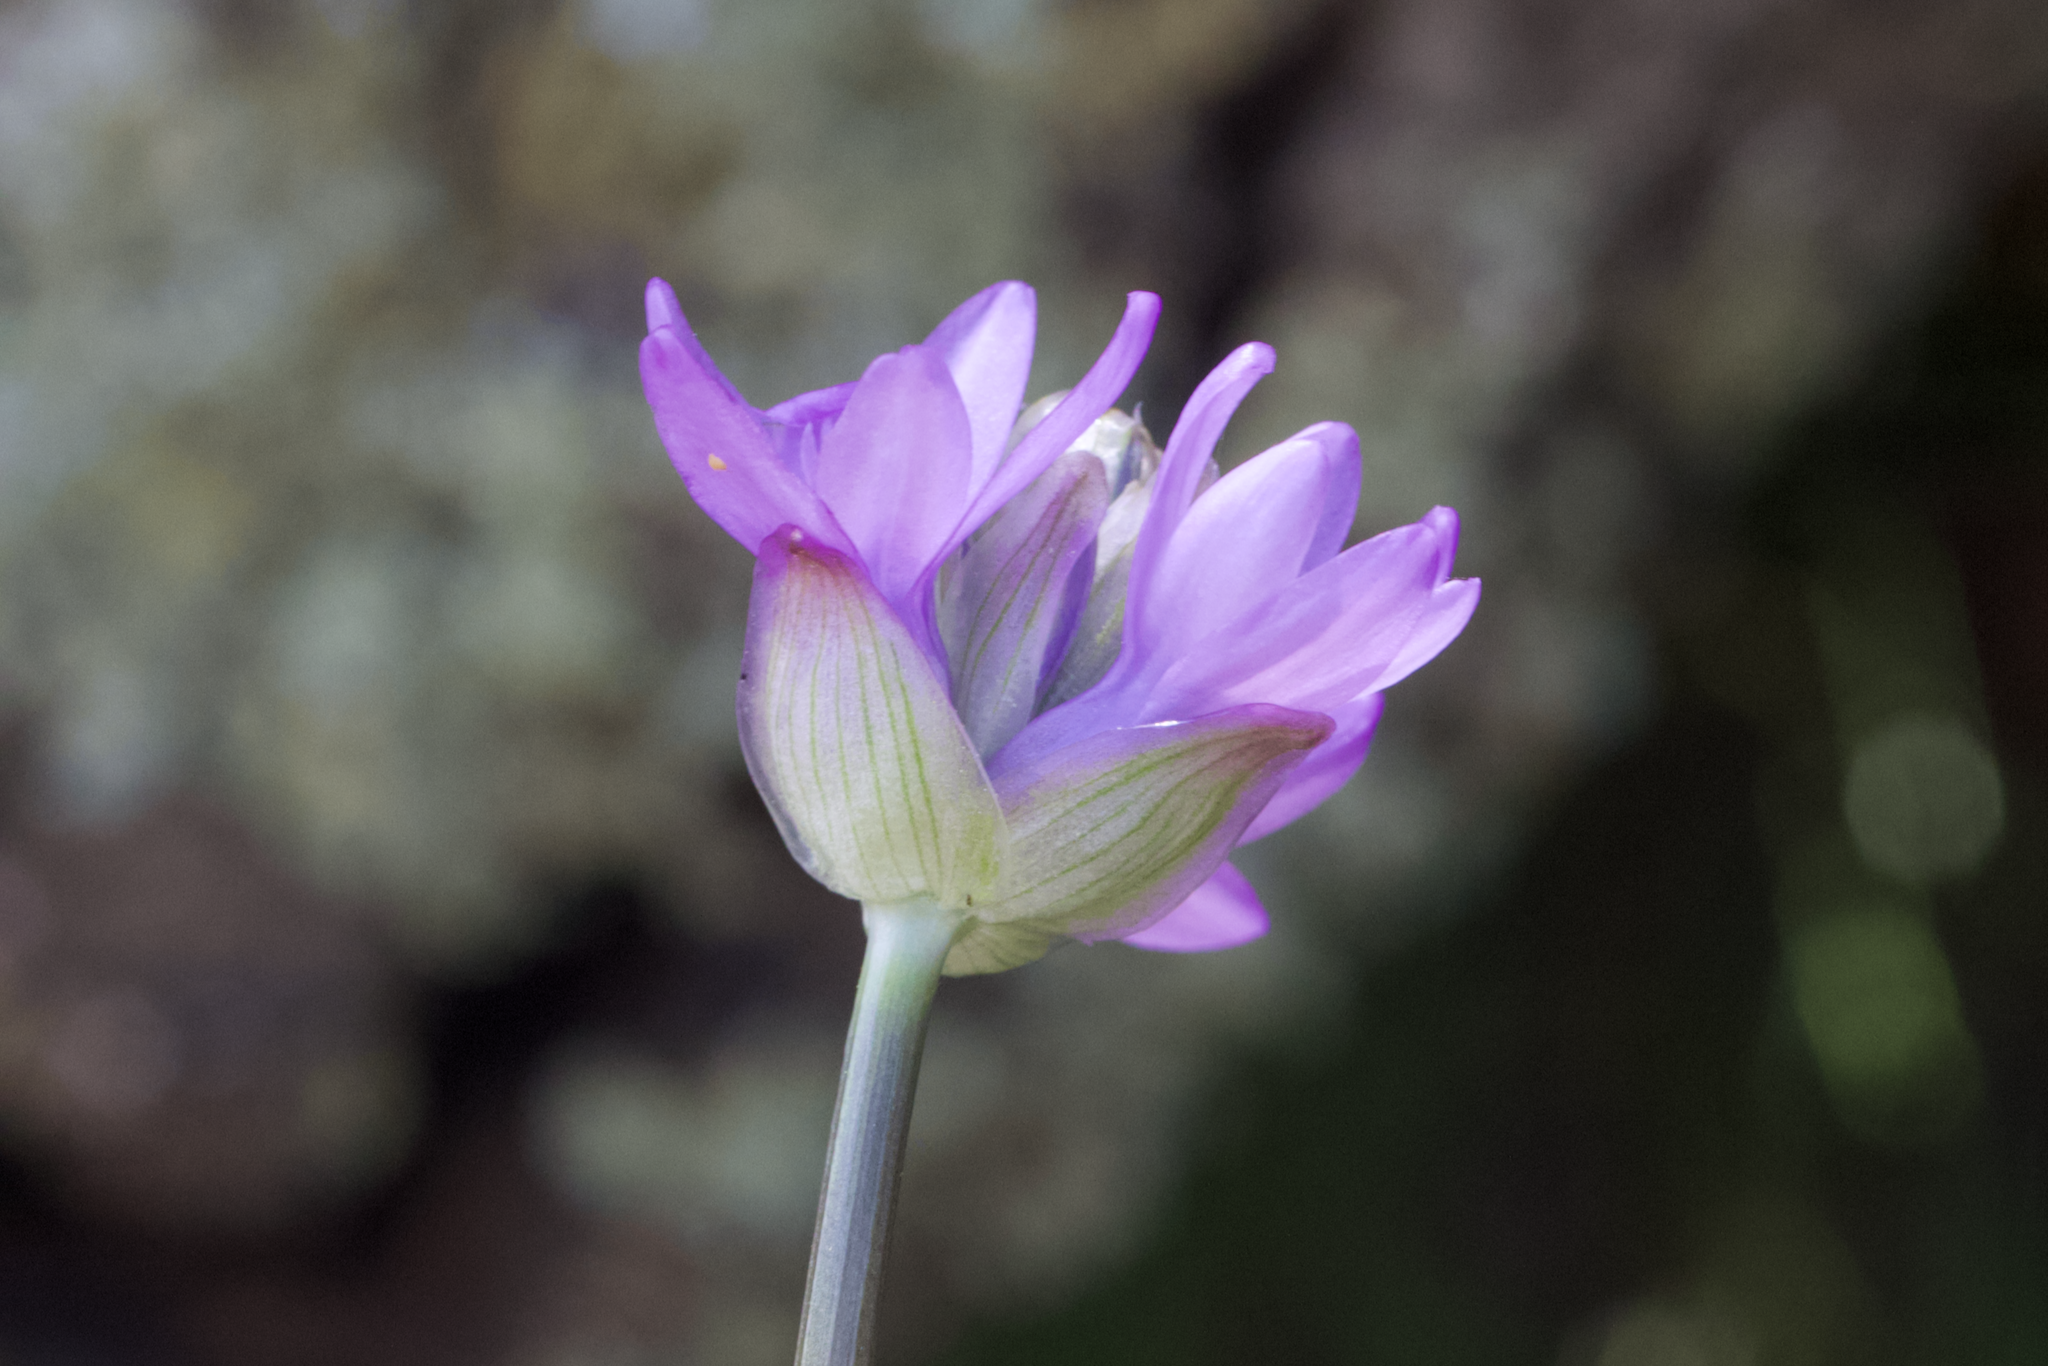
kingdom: Plantae
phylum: Tracheophyta
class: Liliopsida
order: Asparagales
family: Asparagaceae
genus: Dichelostemma
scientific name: Dichelostemma congestum
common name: Fork-tooth ookow
